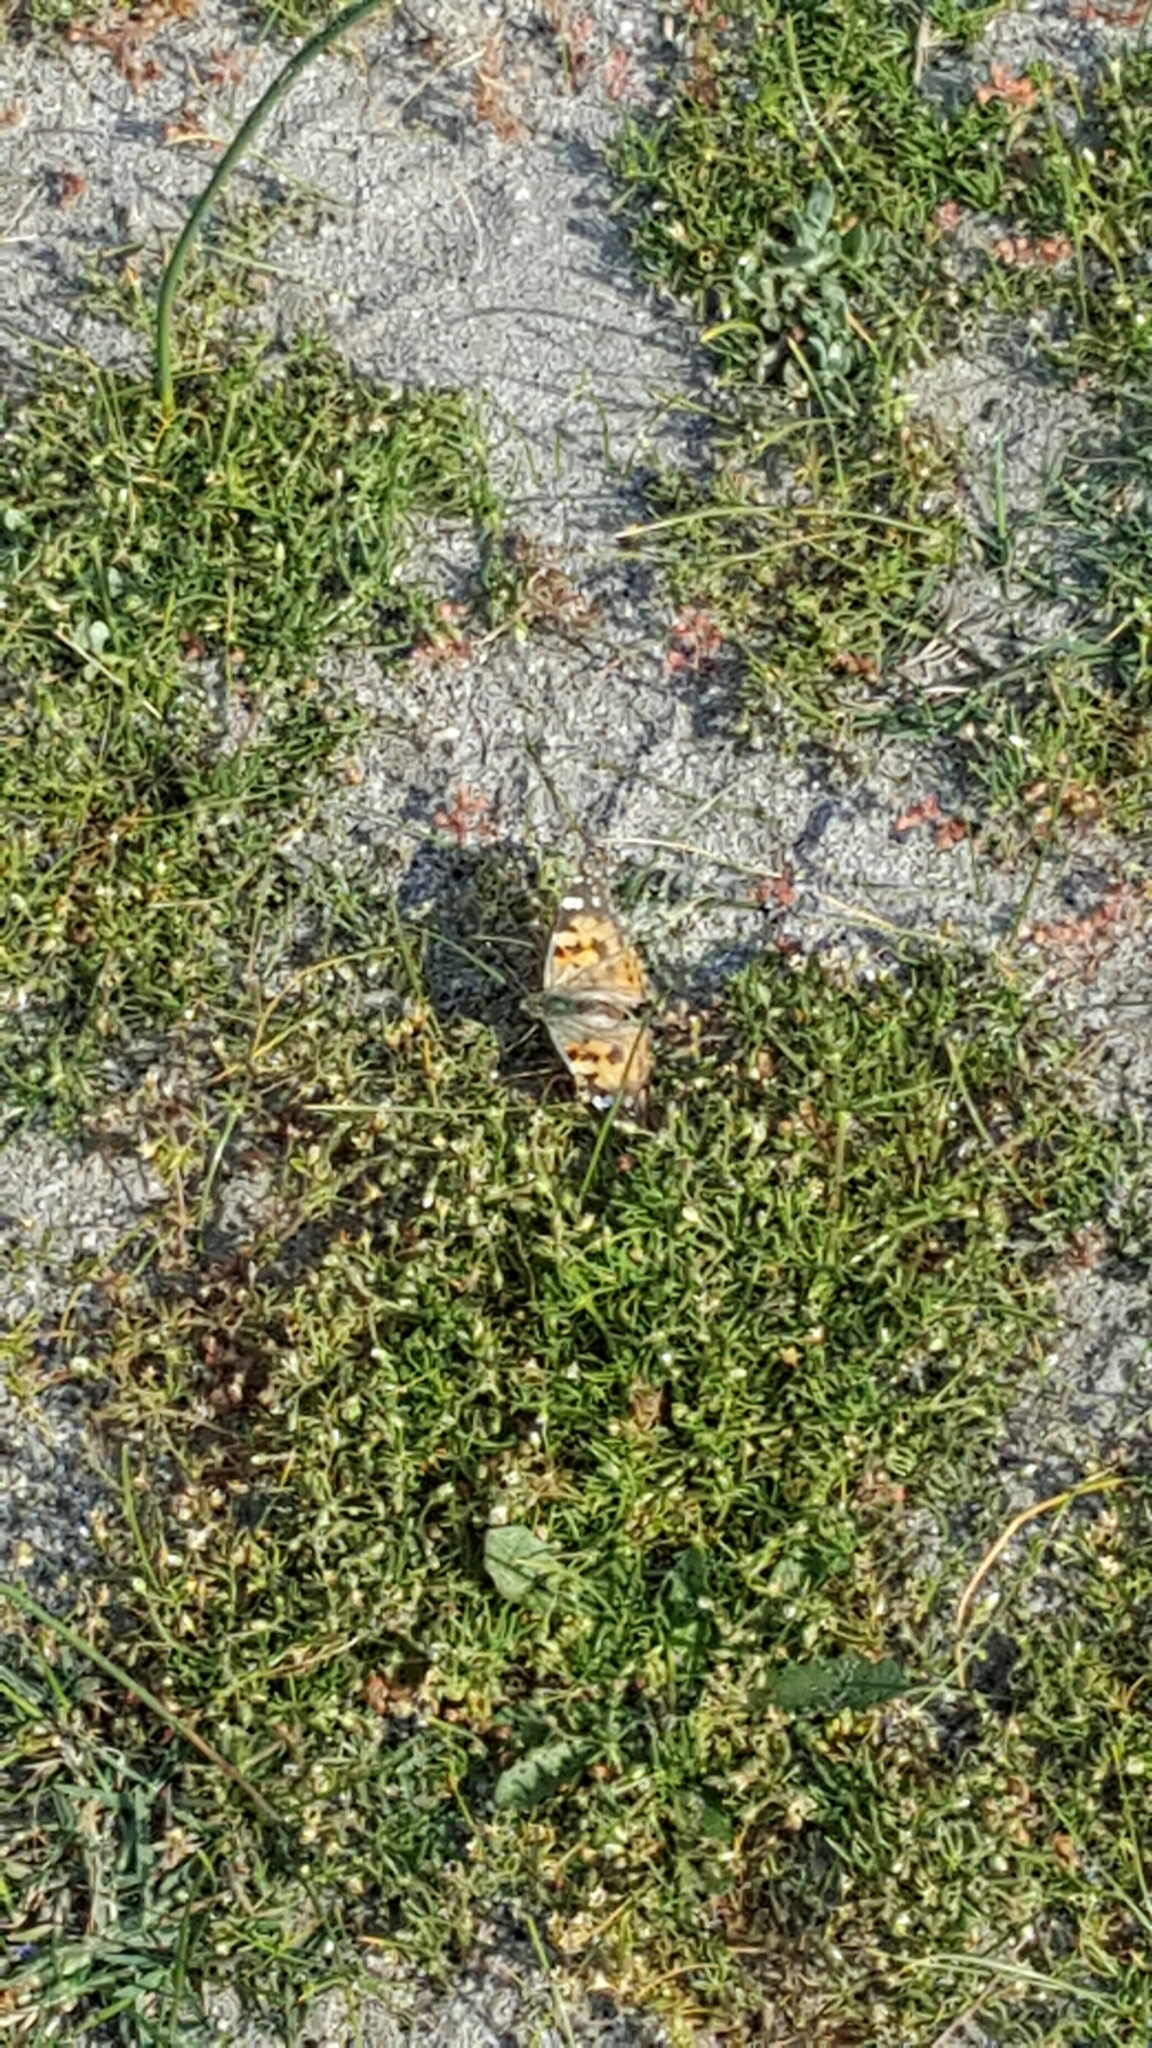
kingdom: Animalia
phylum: Arthropoda
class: Insecta
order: Lepidoptera
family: Nymphalidae
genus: Vanessa
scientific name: Vanessa cardui
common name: Painted lady
